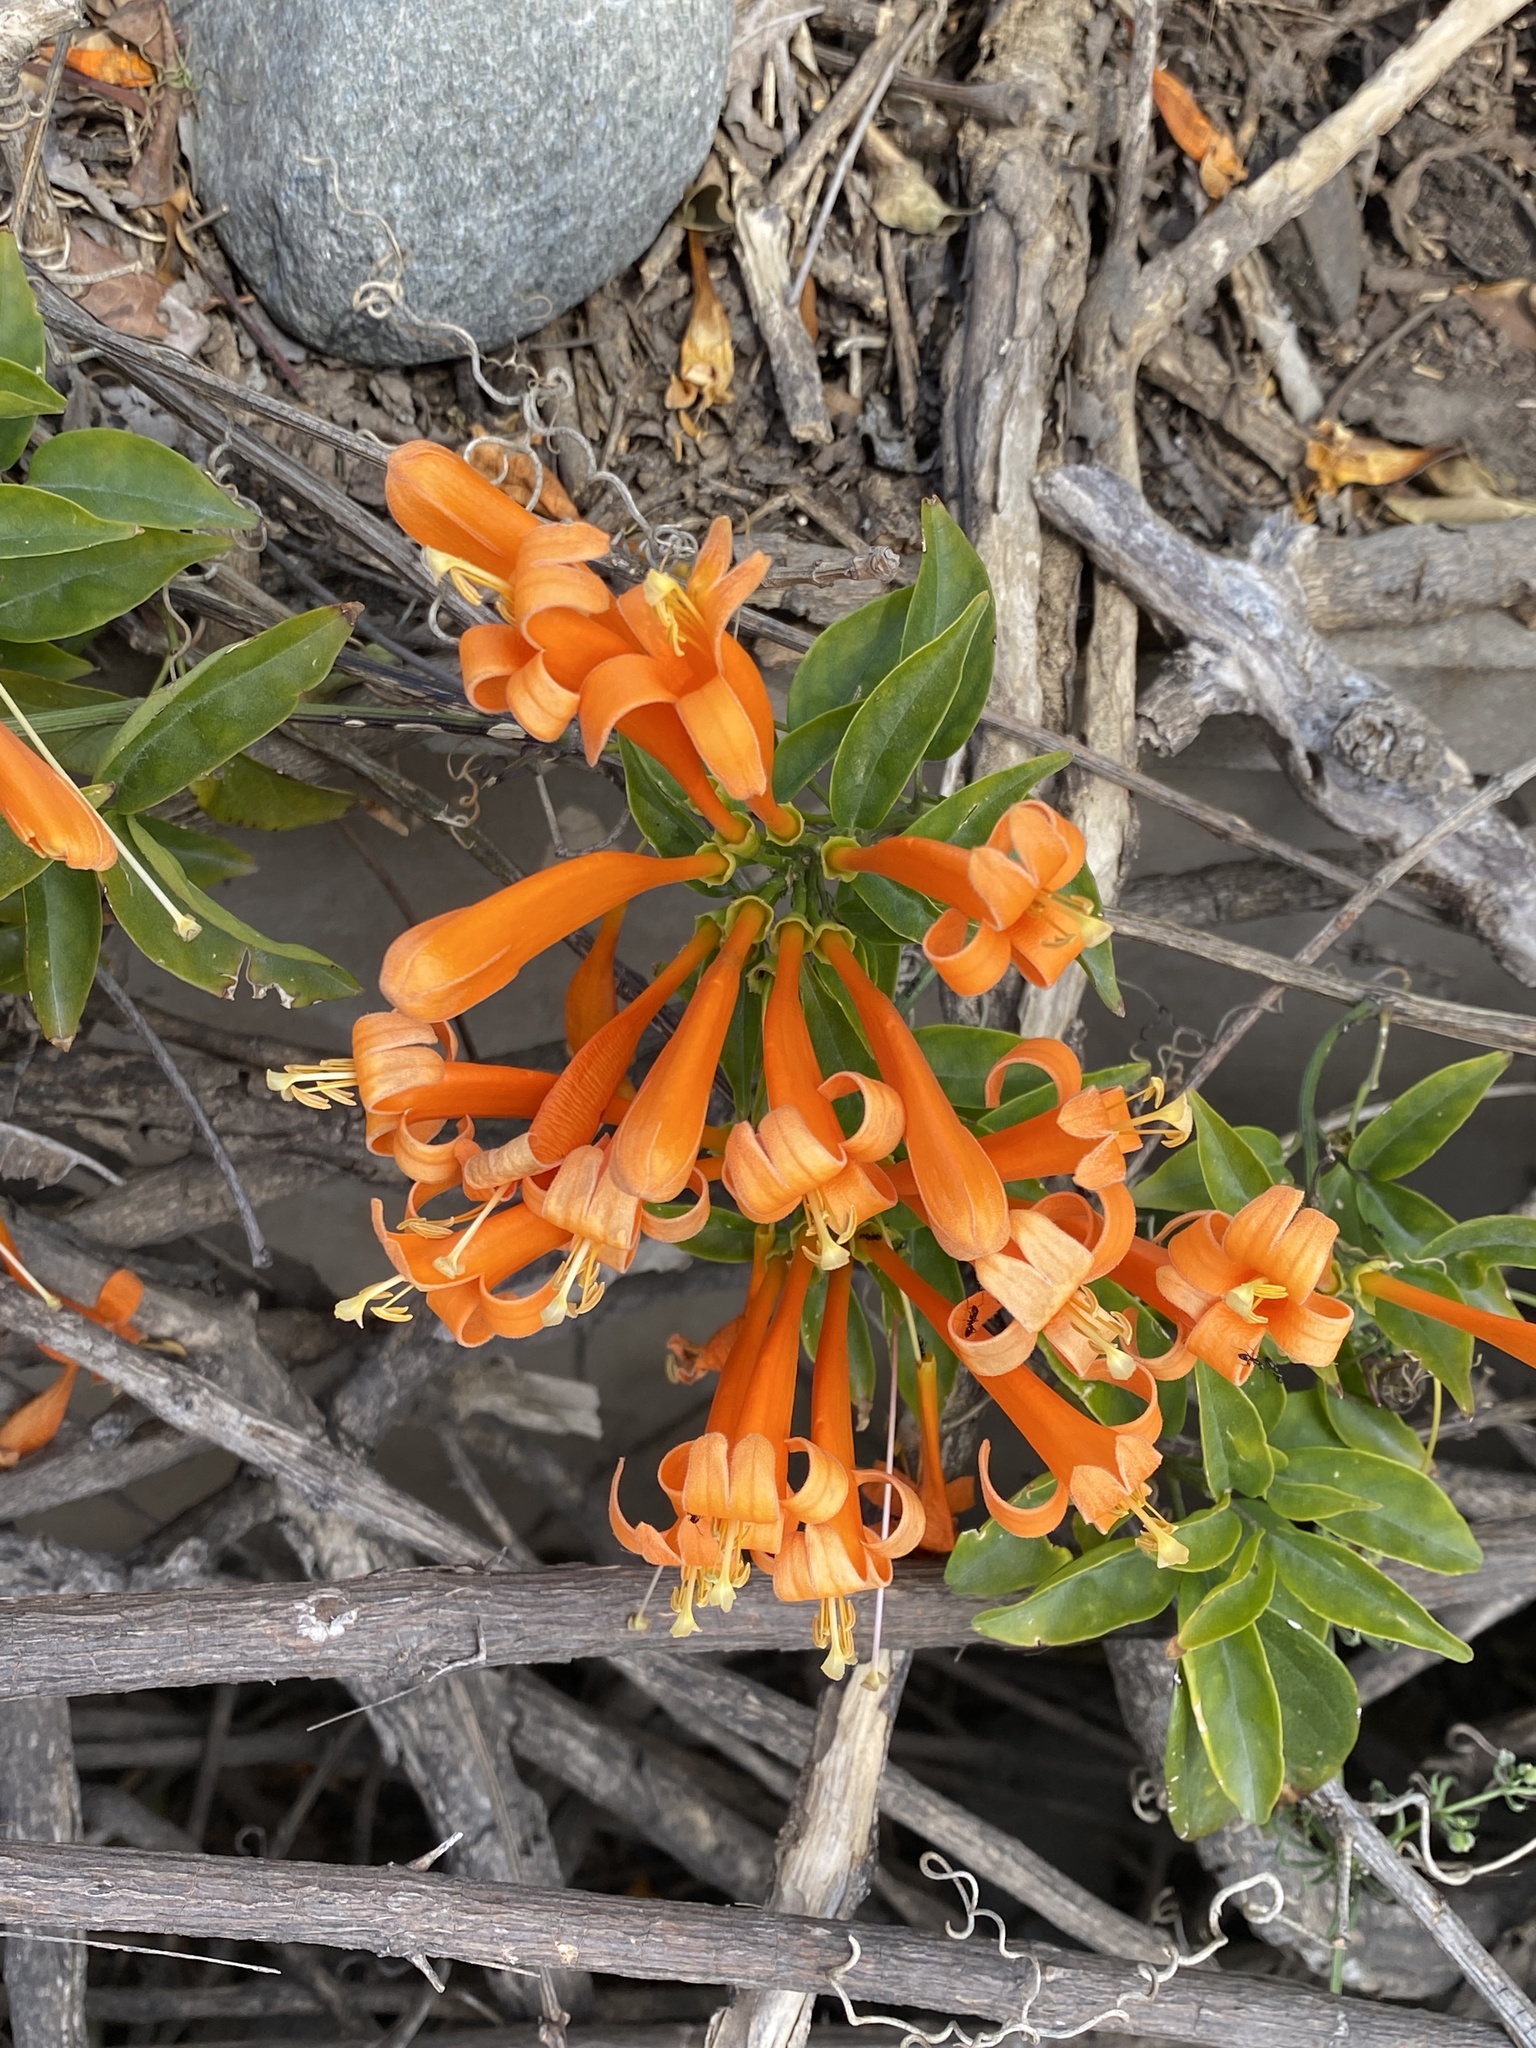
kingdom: Plantae
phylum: Tracheophyta
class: Magnoliopsida
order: Lamiales
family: Bignoniaceae
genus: Pyrostegia
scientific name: Pyrostegia venusta
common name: Flamevine
